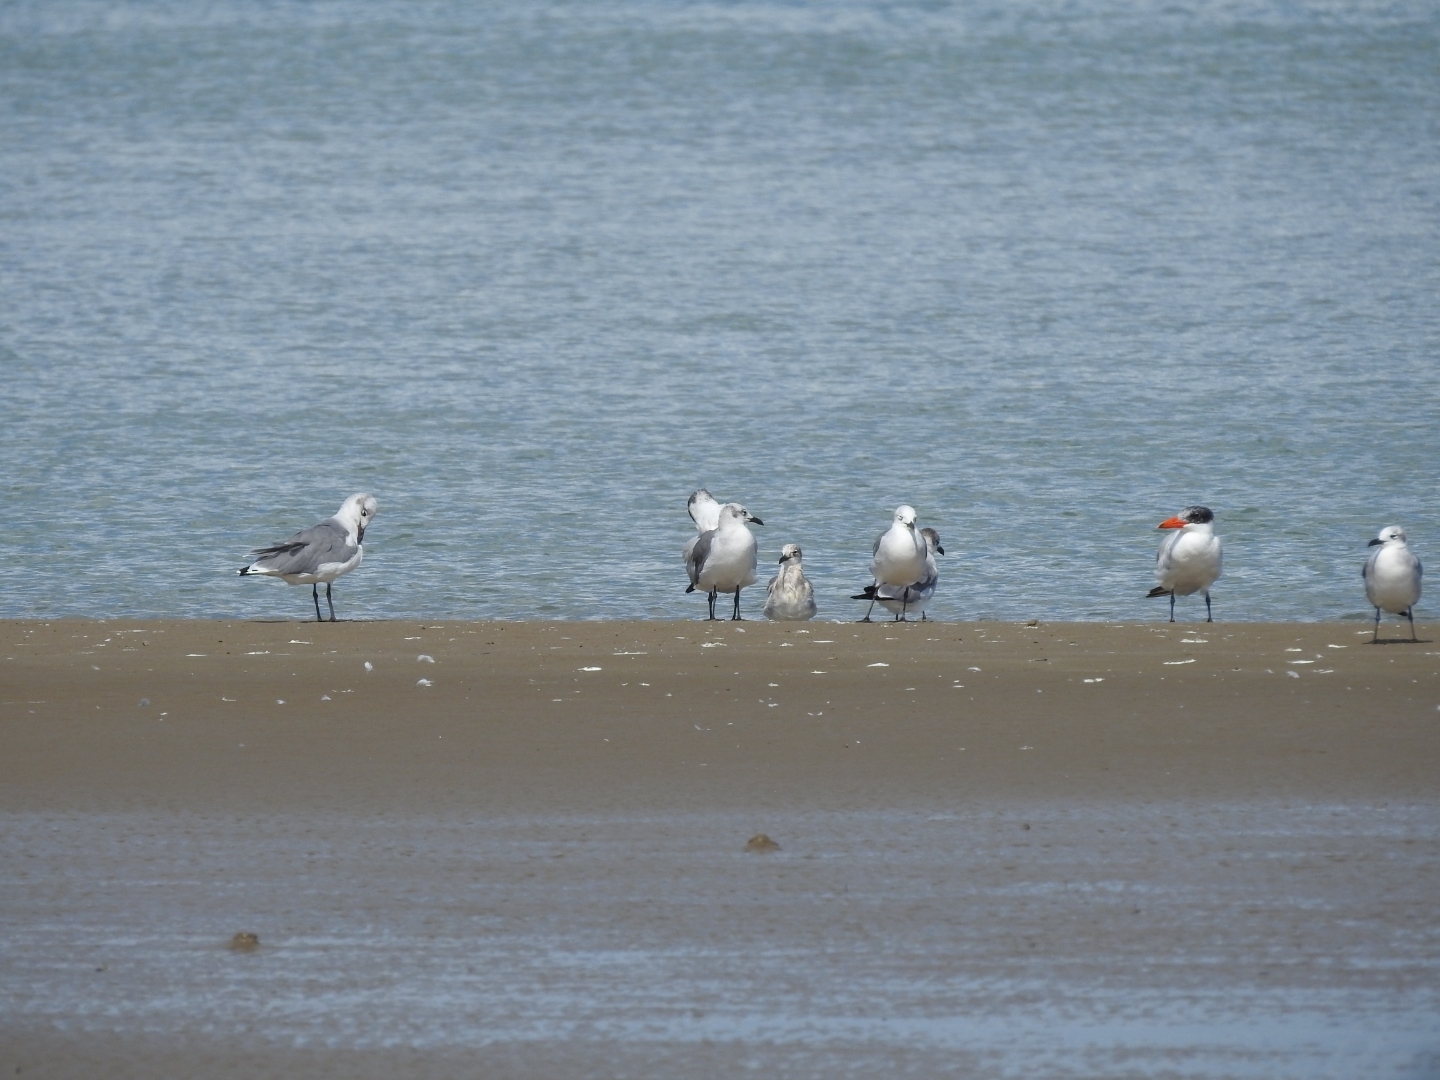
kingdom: Animalia
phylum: Chordata
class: Aves
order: Charadriiformes
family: Laridae
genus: Leucophaeus
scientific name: Leucophaeus atricilla
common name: Laughing gull
